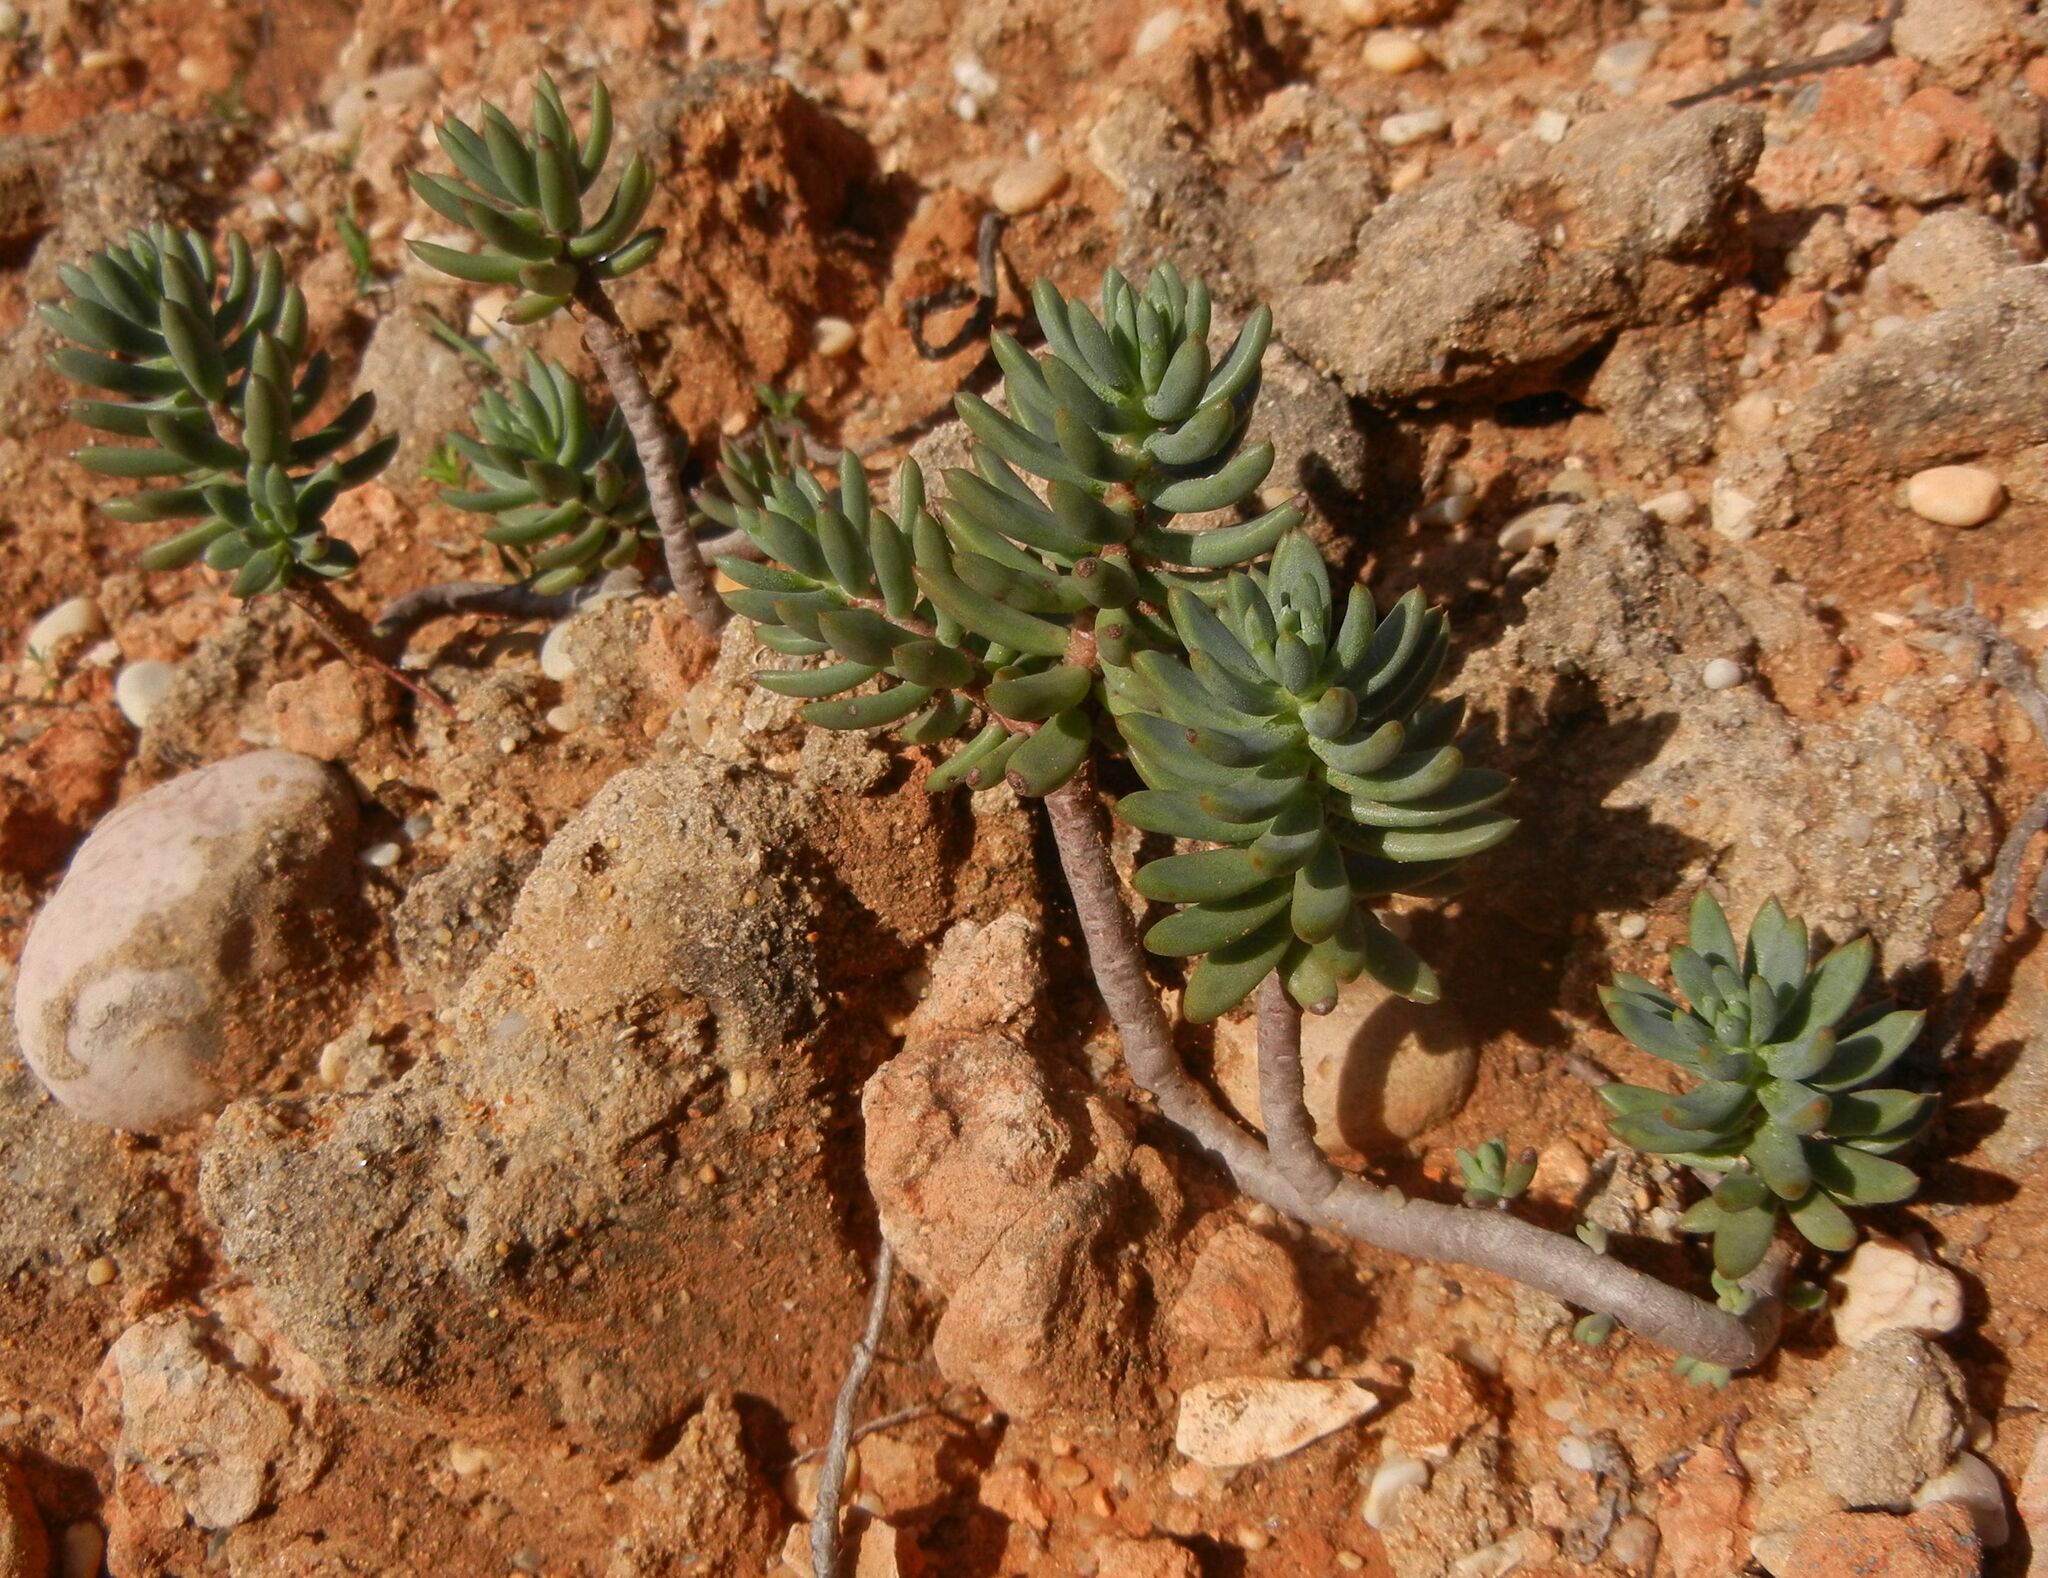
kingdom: Plantae
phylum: Tracheophyta
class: Magnoliopsida
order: Saxifragales
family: Crassulaceae
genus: Petrosedum
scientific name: Petrosedum sediforme
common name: Pale stonecrop
